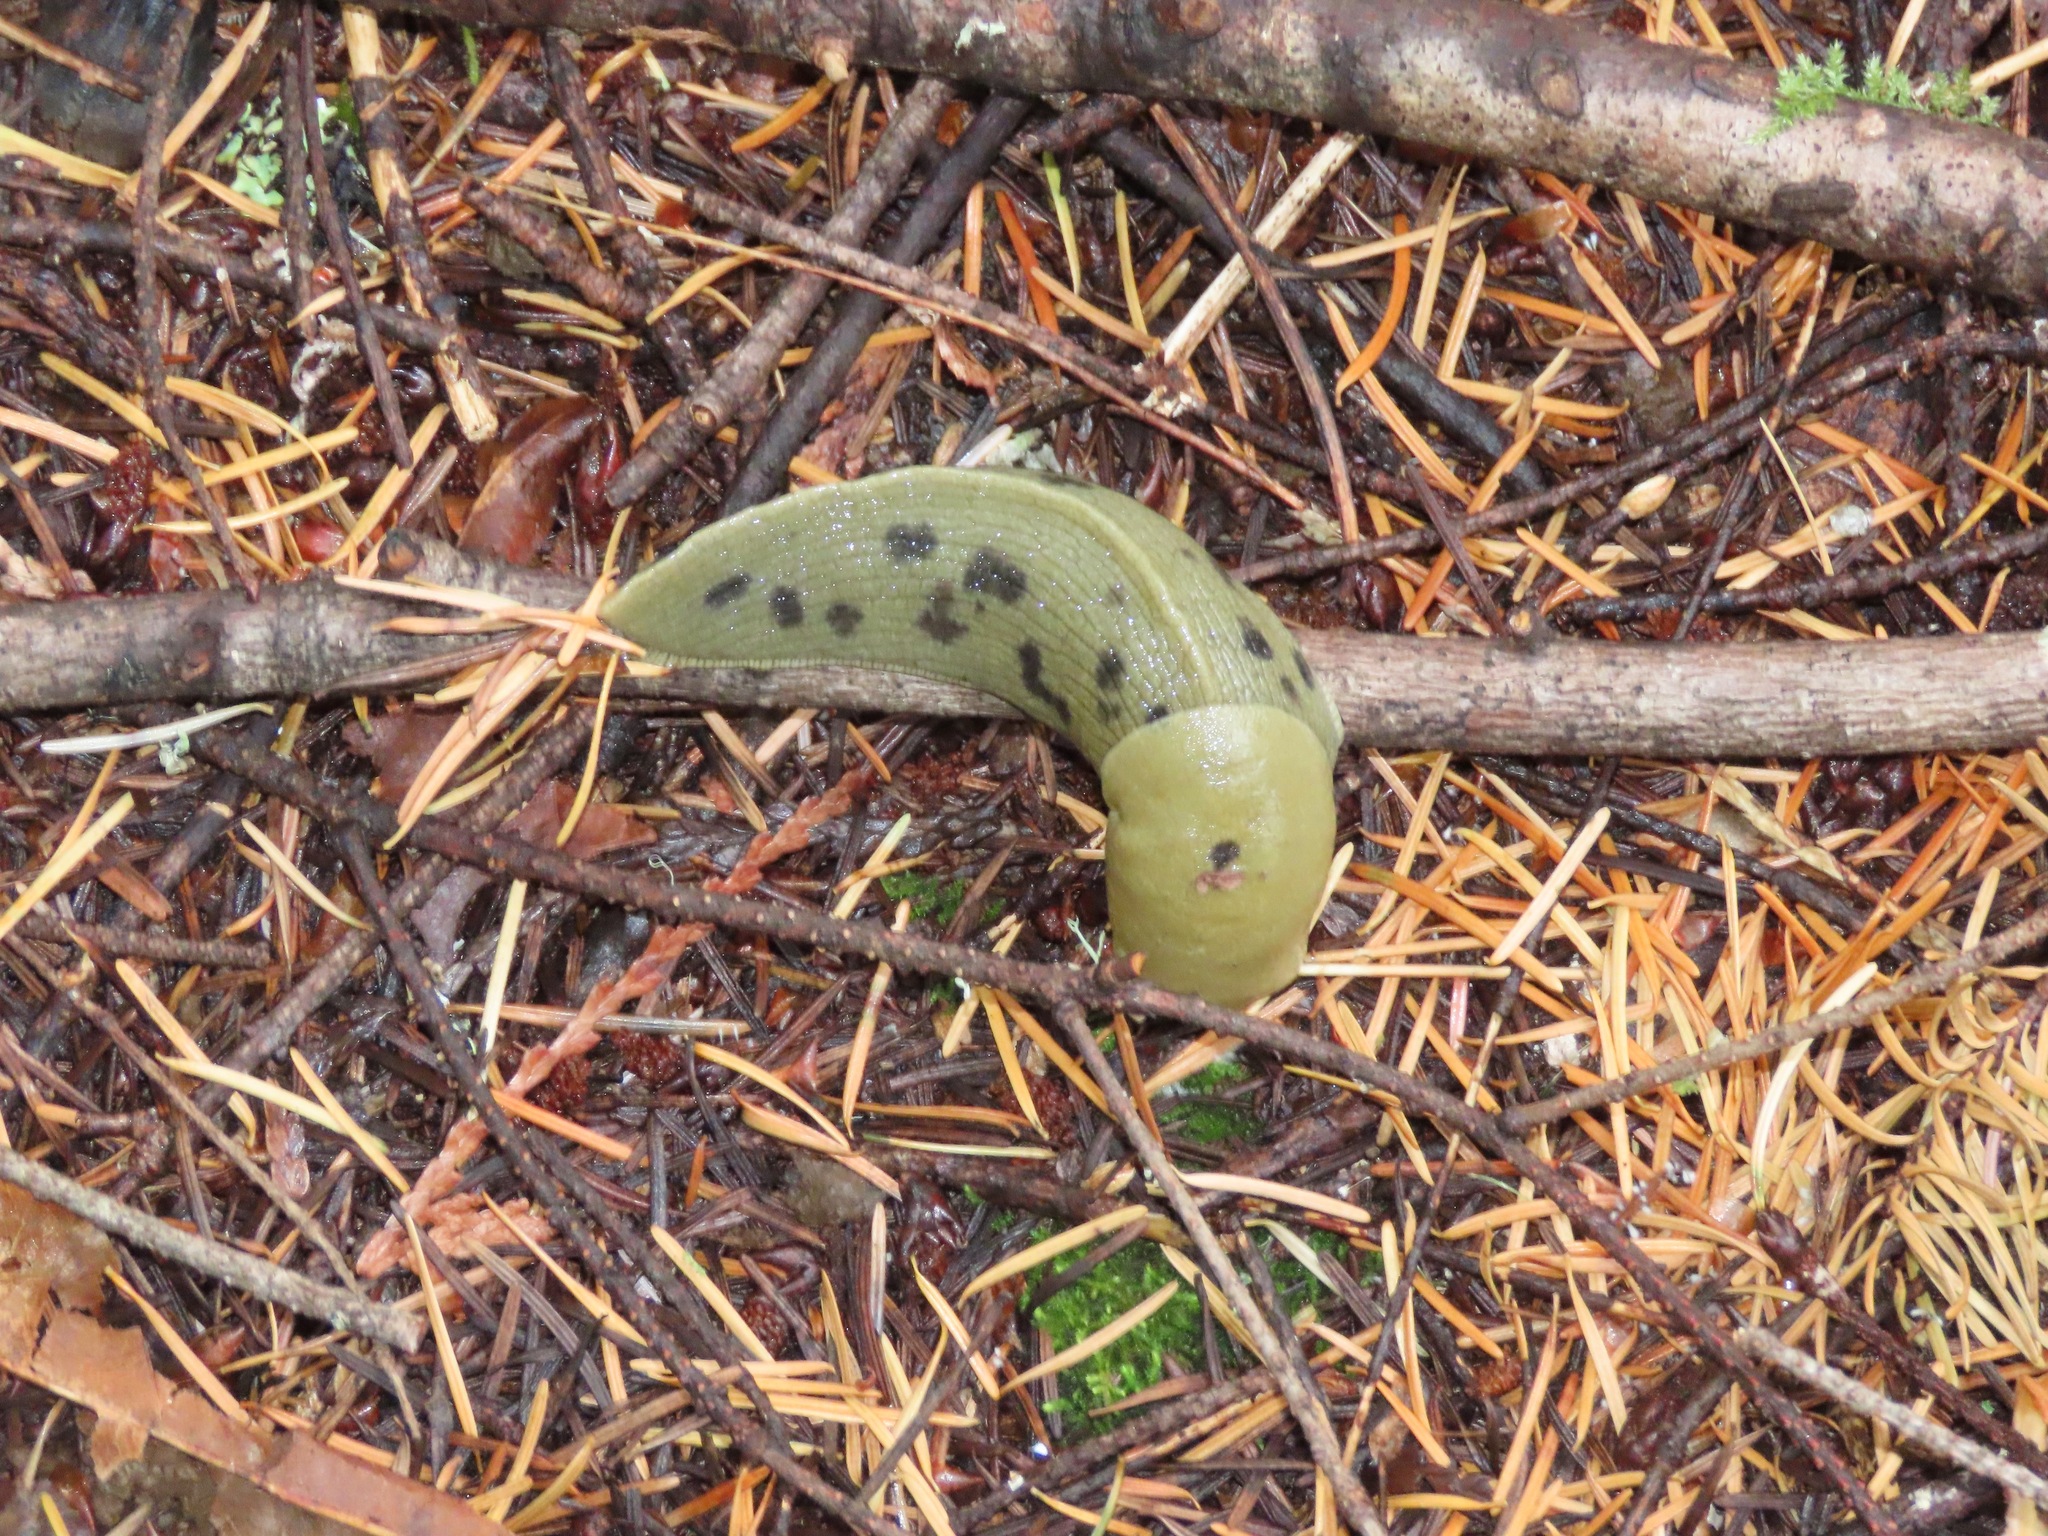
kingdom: Animalia
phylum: Mollusca
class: Gastropoda
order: Stylommatophora
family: Ariolimacidae
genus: Ariolimax
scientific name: Ariolimax columbianus
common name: Pacific banana slug
